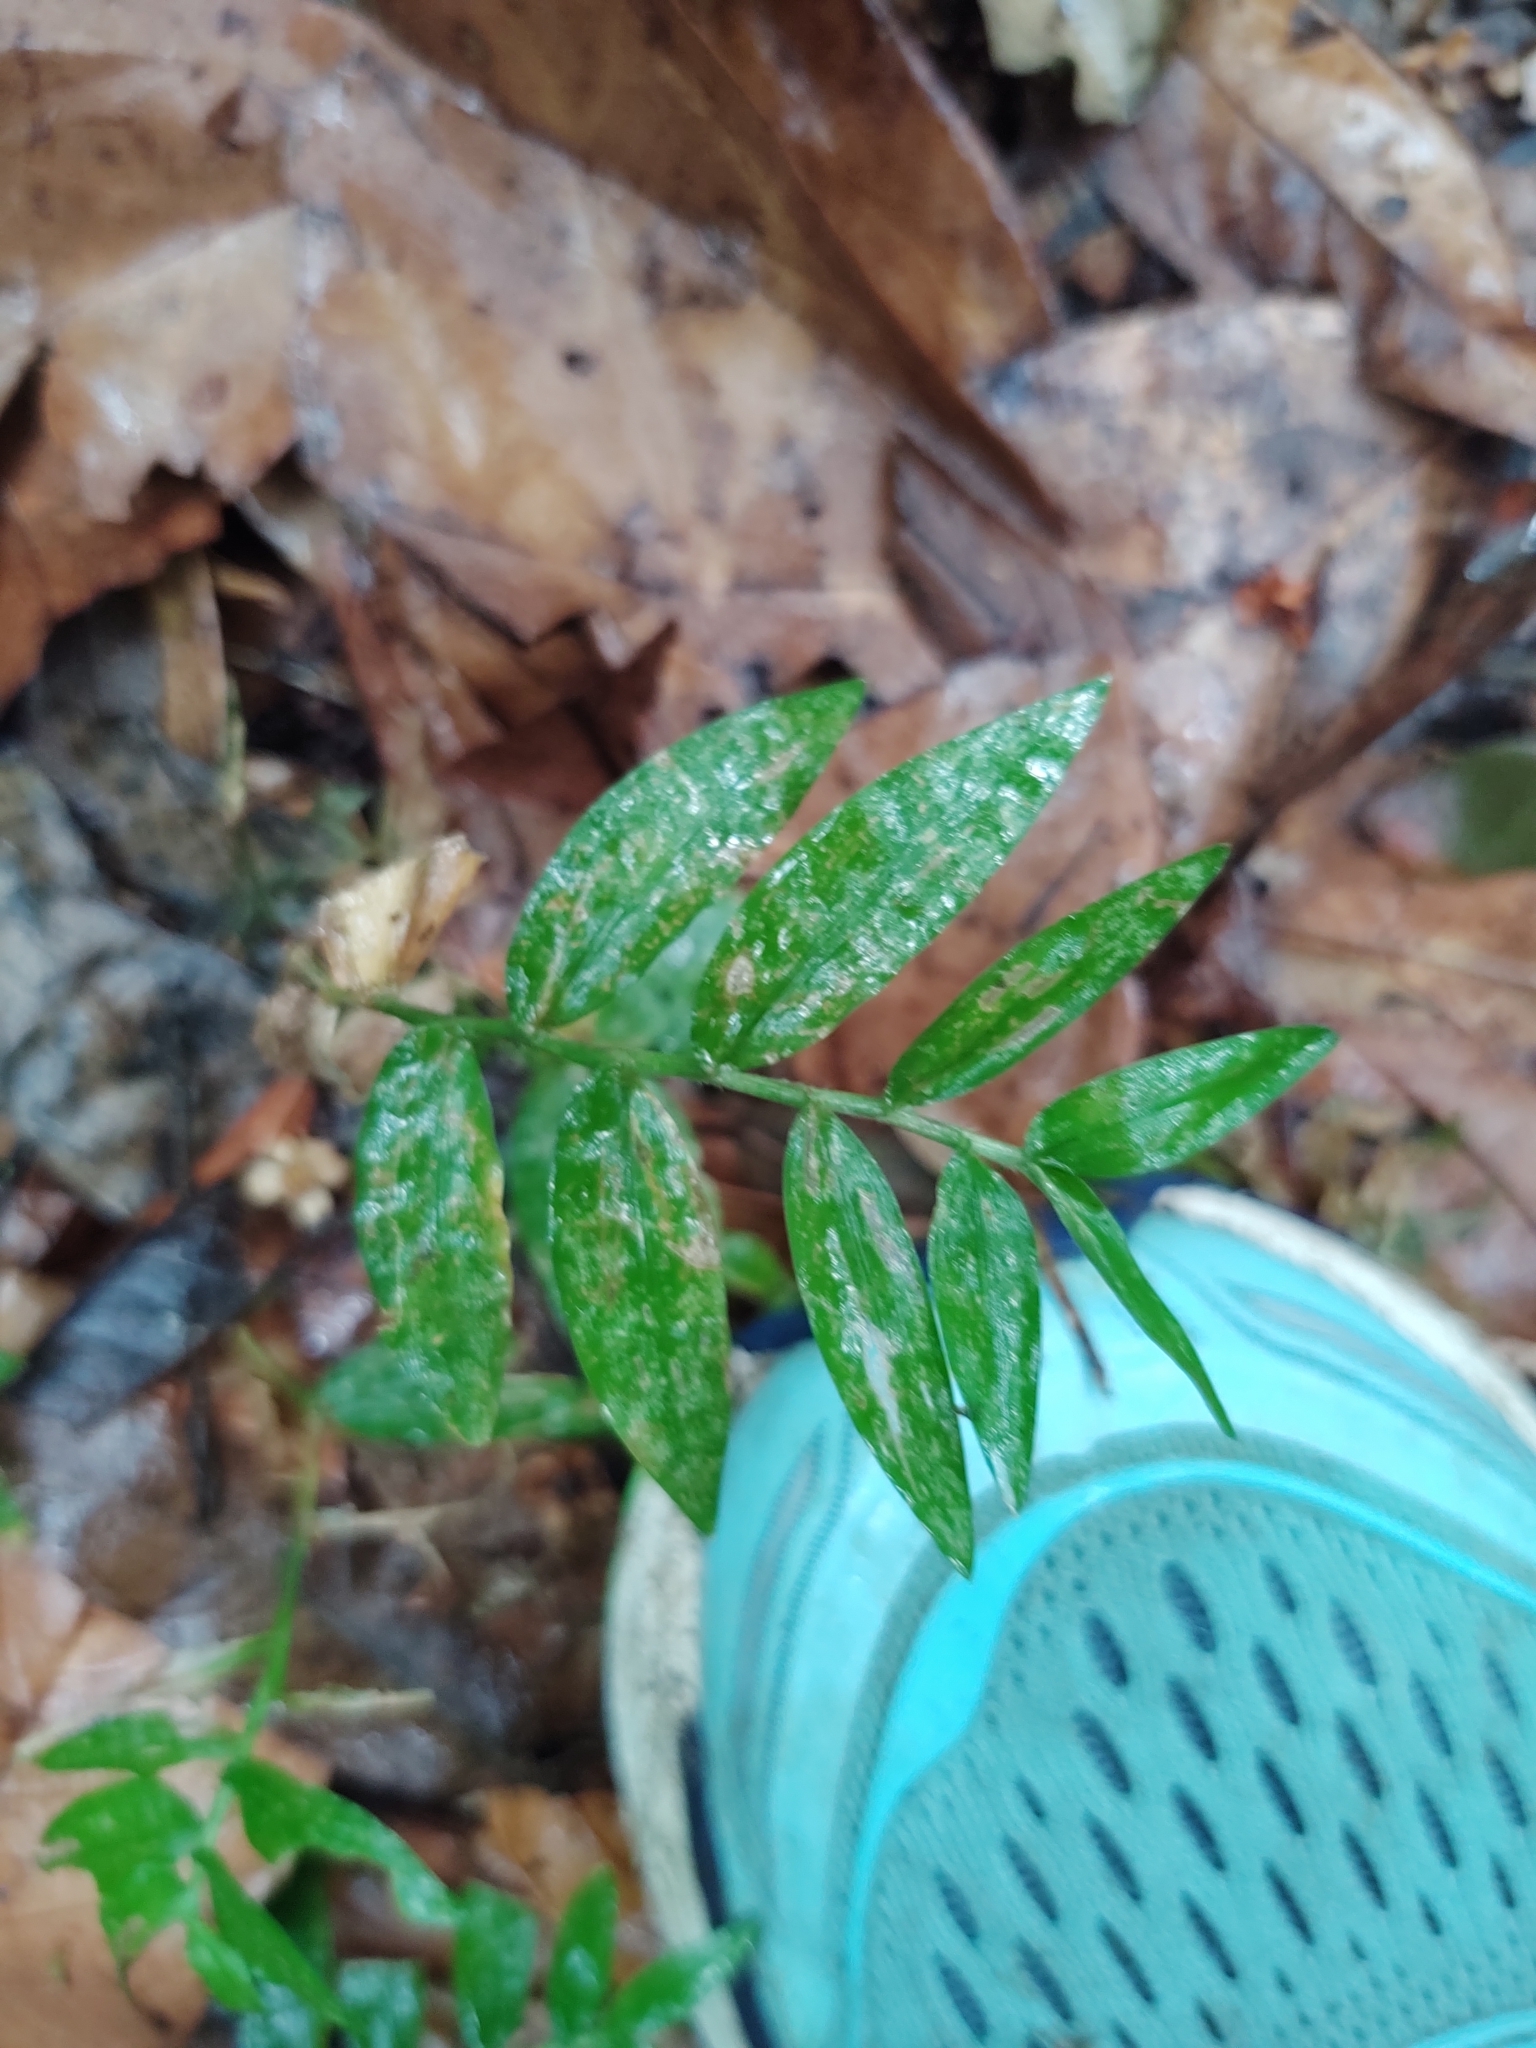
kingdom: Plantae
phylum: Tracheophyta
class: Liliopsida
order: Poales
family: Poaceae
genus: Oplismenus
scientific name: Oplismenus undulatifolius
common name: Wavyleaf basketgrass
